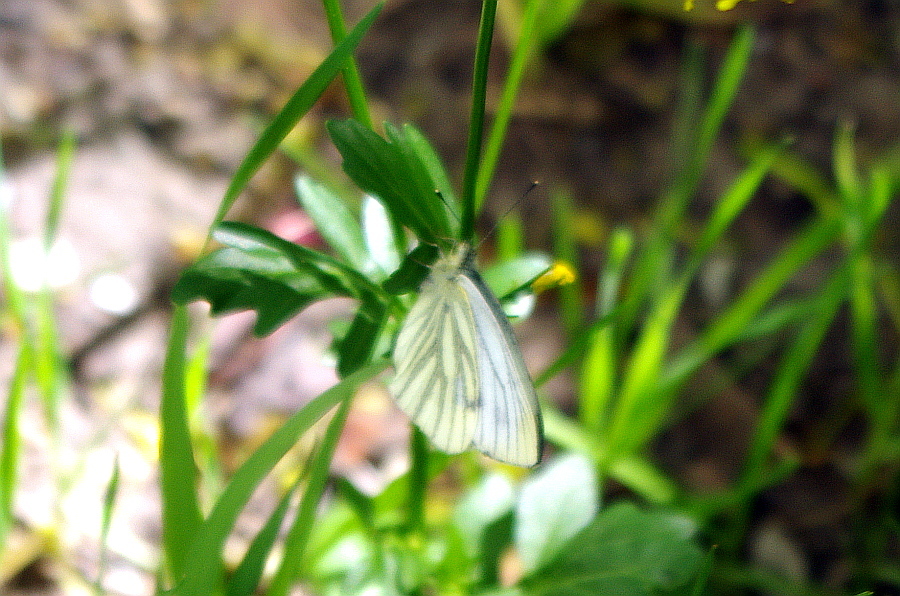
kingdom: Animalia
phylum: Arthropoda
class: Insecta
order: Lepidoptera
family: Pieridae
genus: Pieris
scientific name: Pieris napi
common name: Green-veined white
